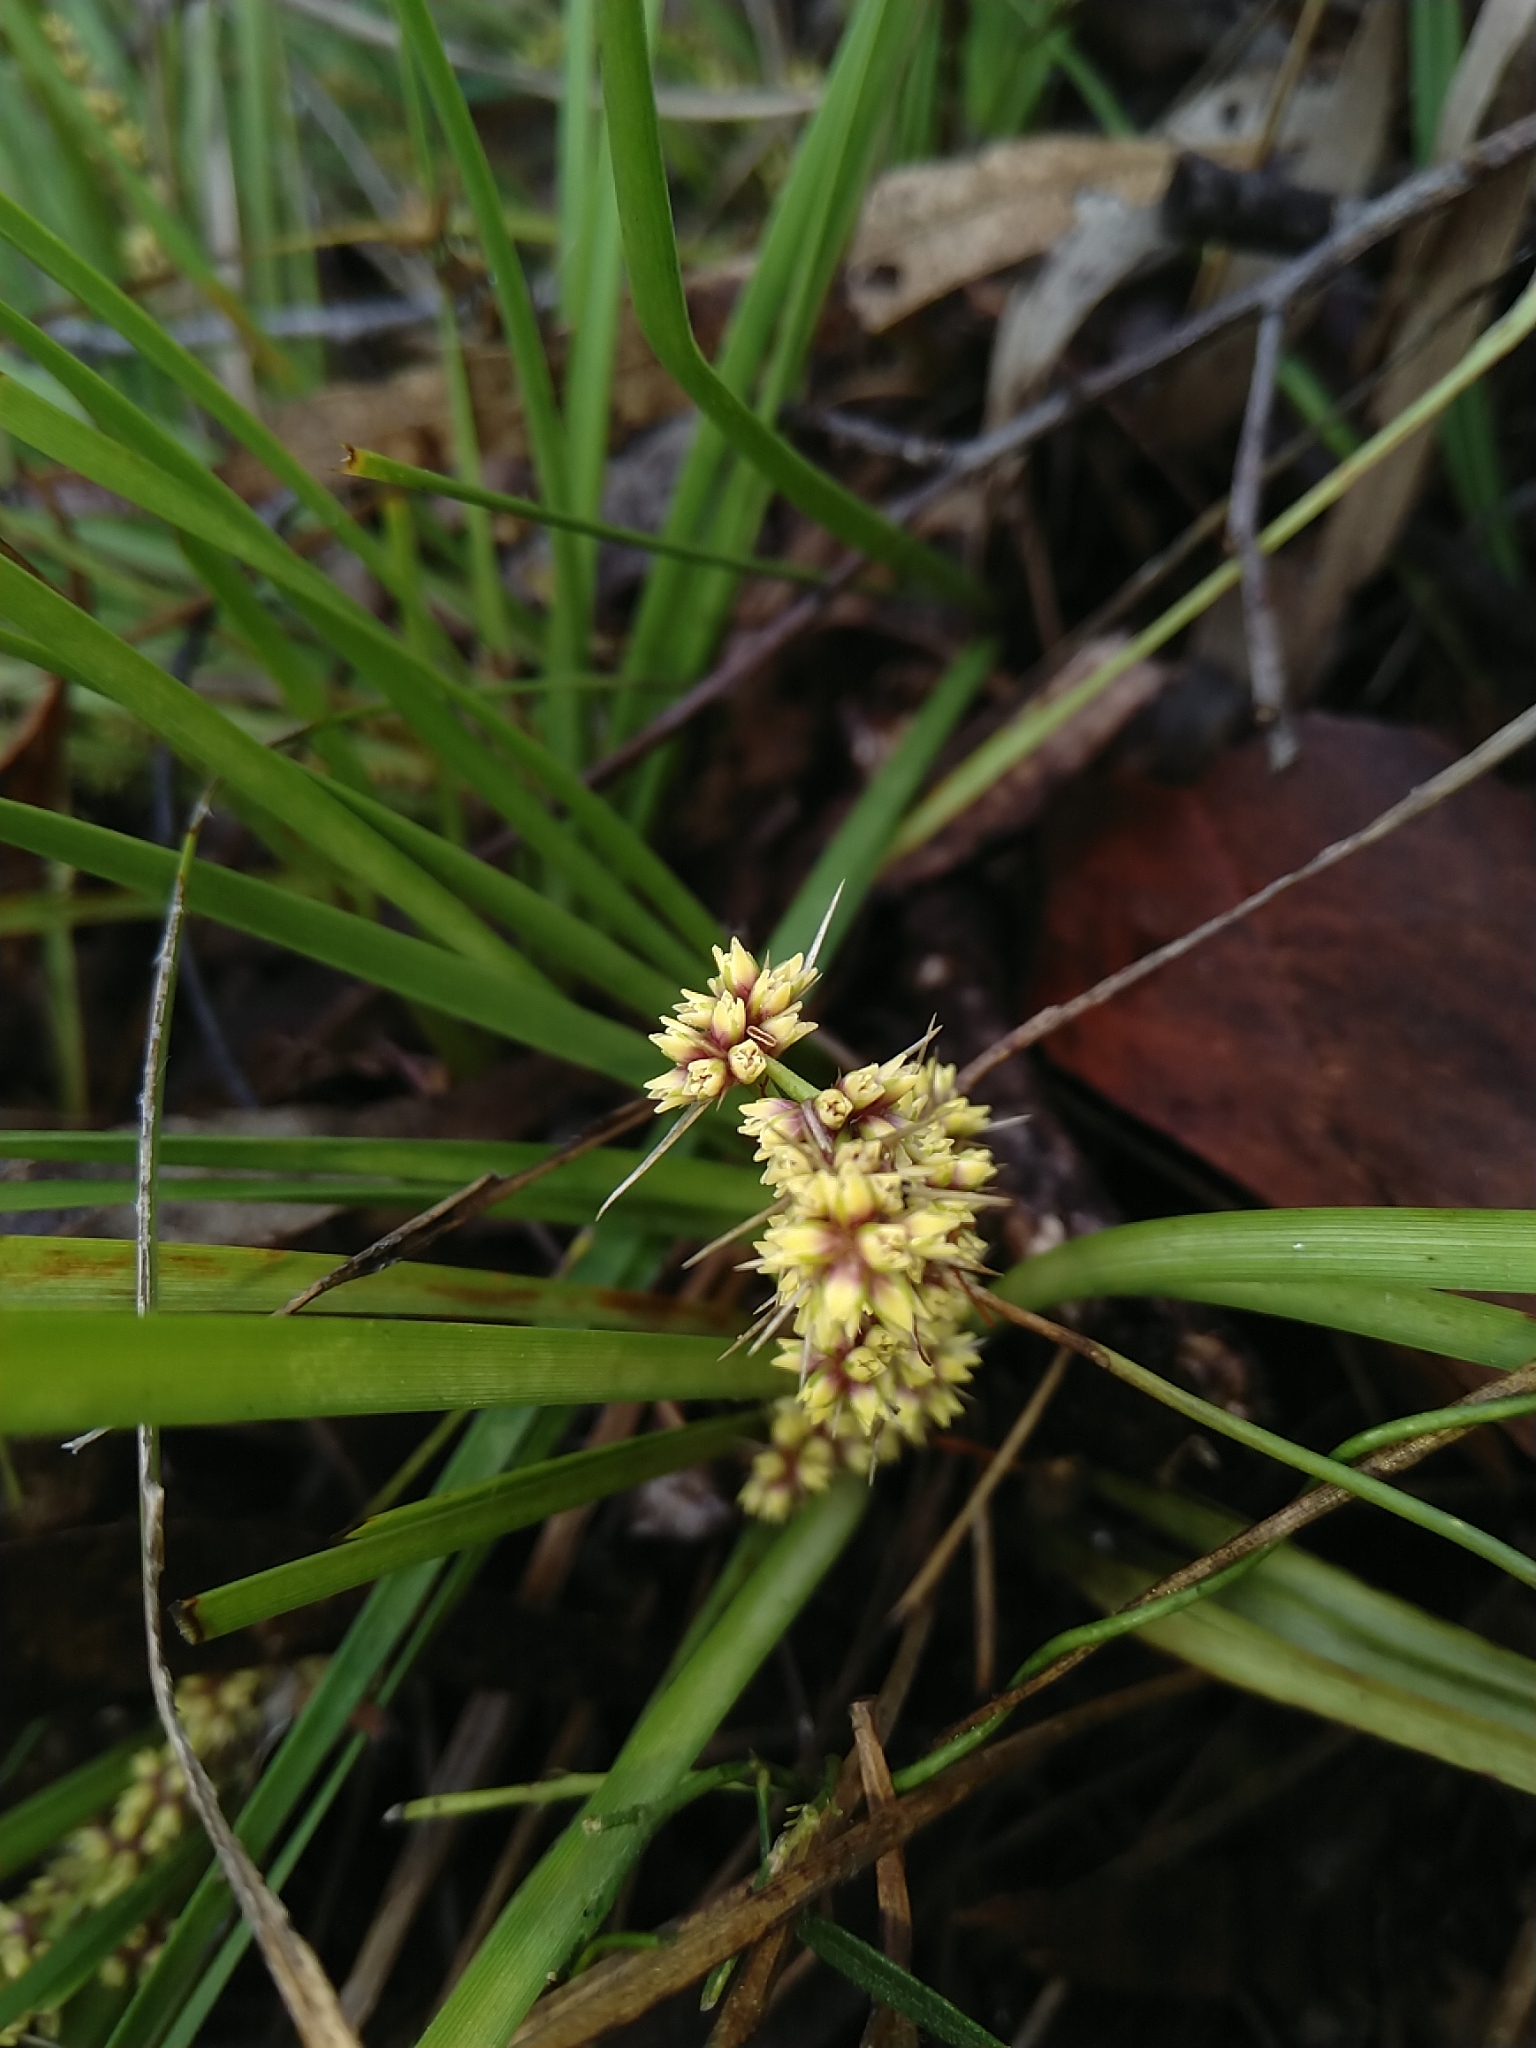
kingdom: Plantae
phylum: Tracheophyta
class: Liliopsida
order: Asparagales
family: Asparagaceae
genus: Lomandra
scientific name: Lomandra confertifolia
